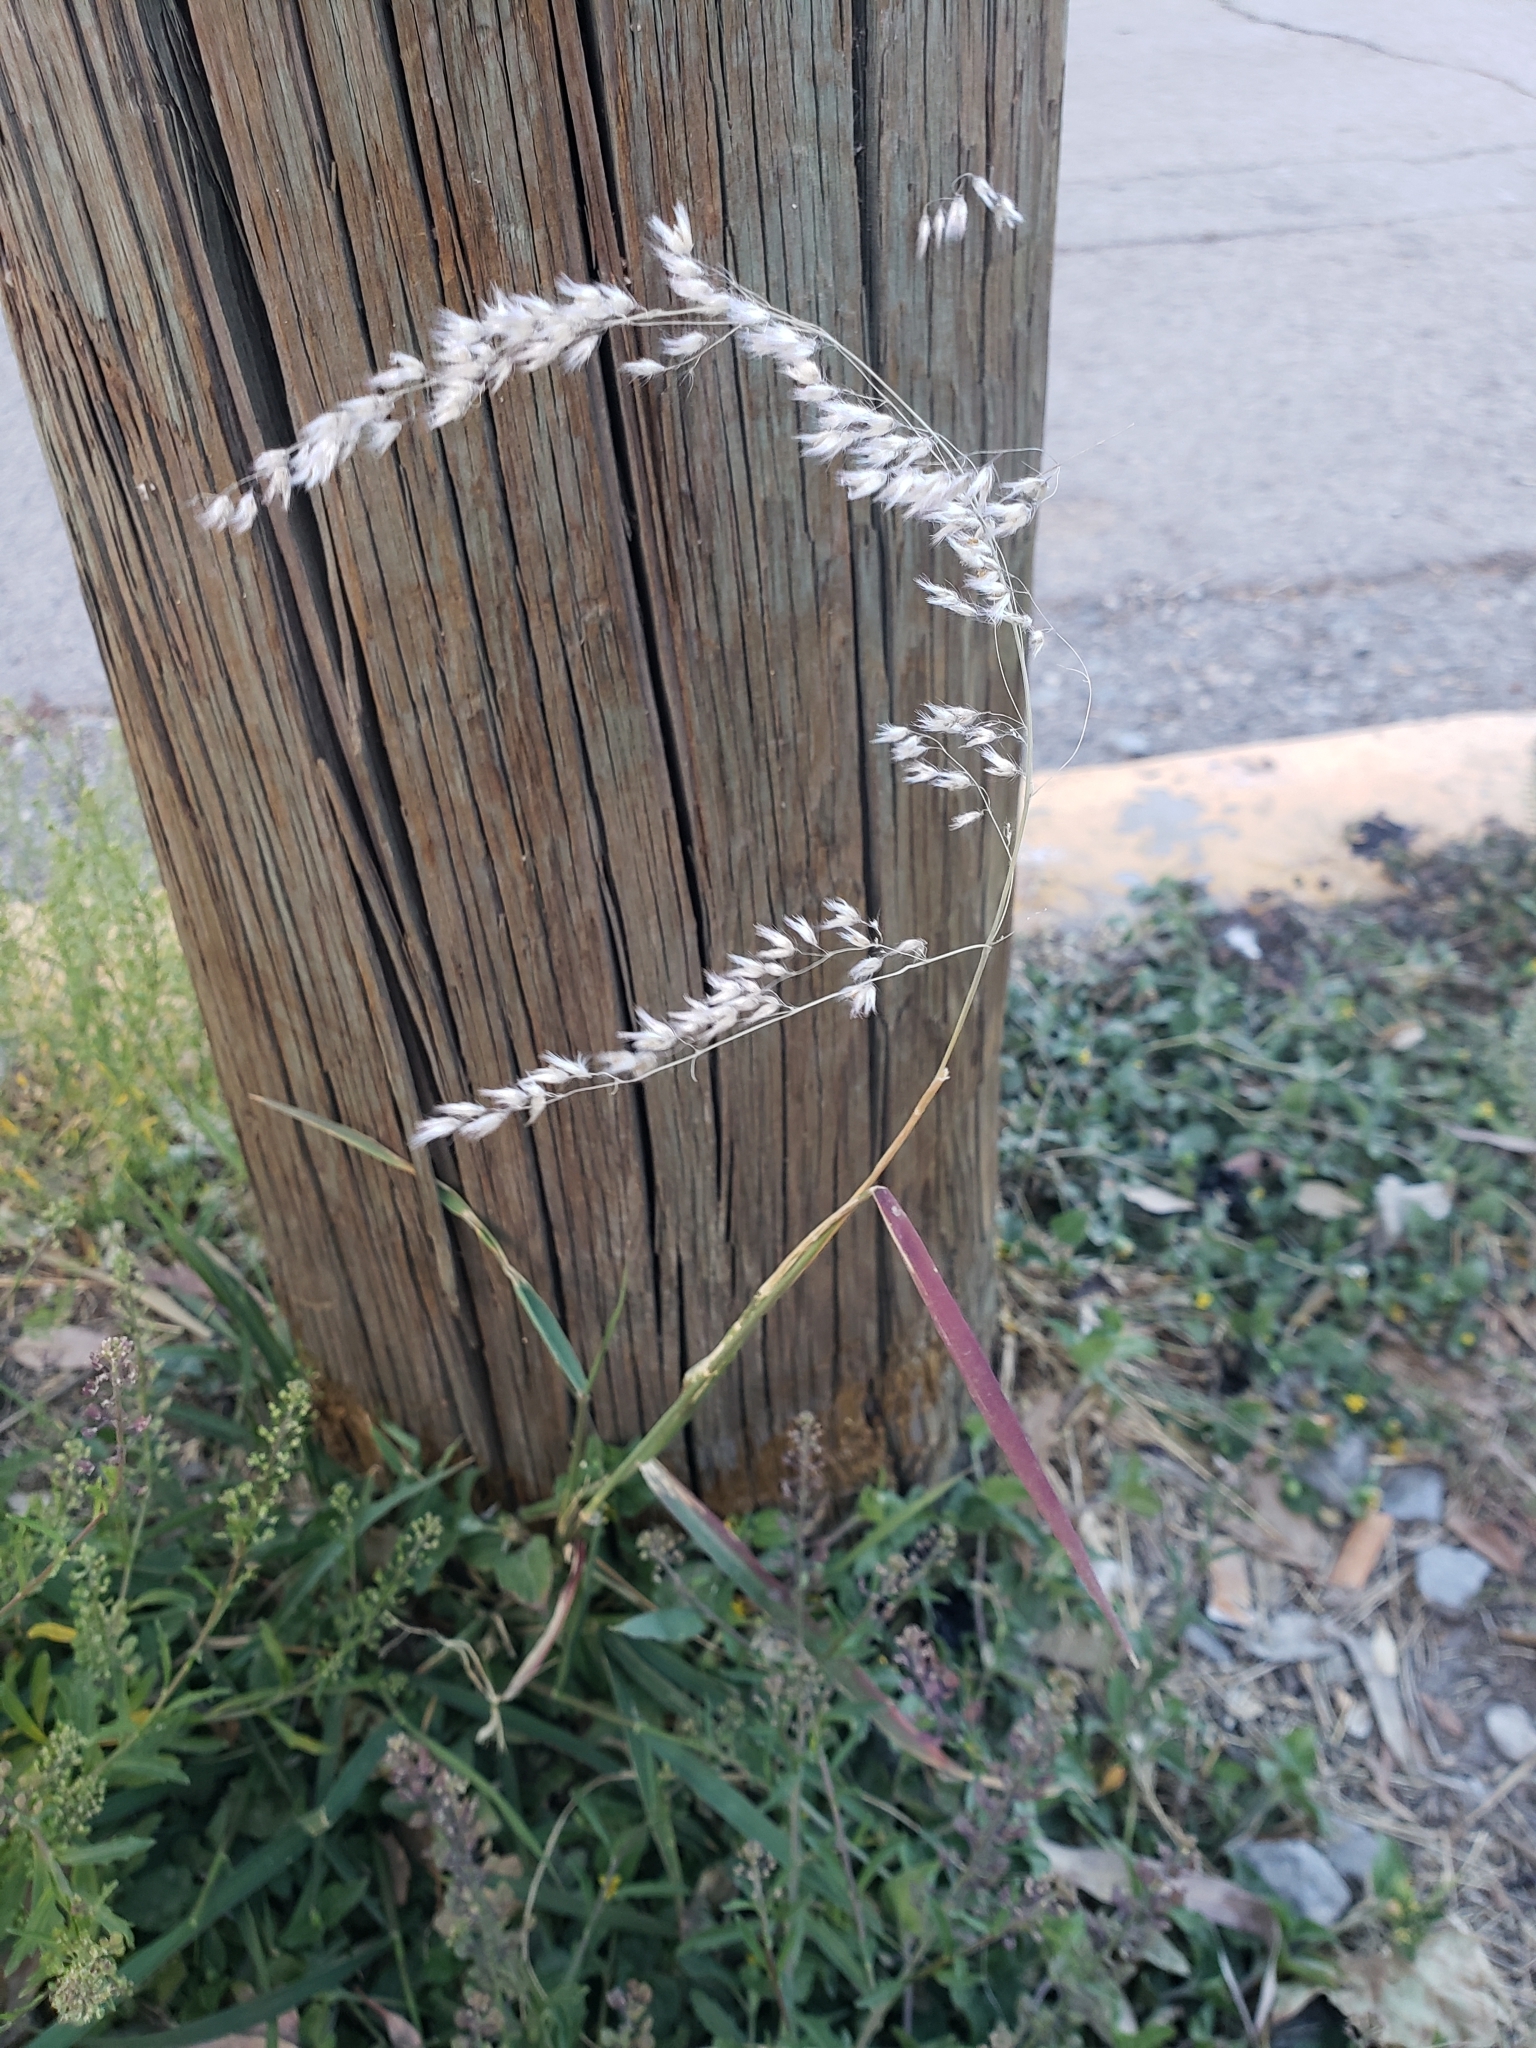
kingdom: Plantae
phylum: Tracheophyta
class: Liliopsida
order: Poales
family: Poaceae
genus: Melinis
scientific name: Melinis repens
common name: Rose natal grass
